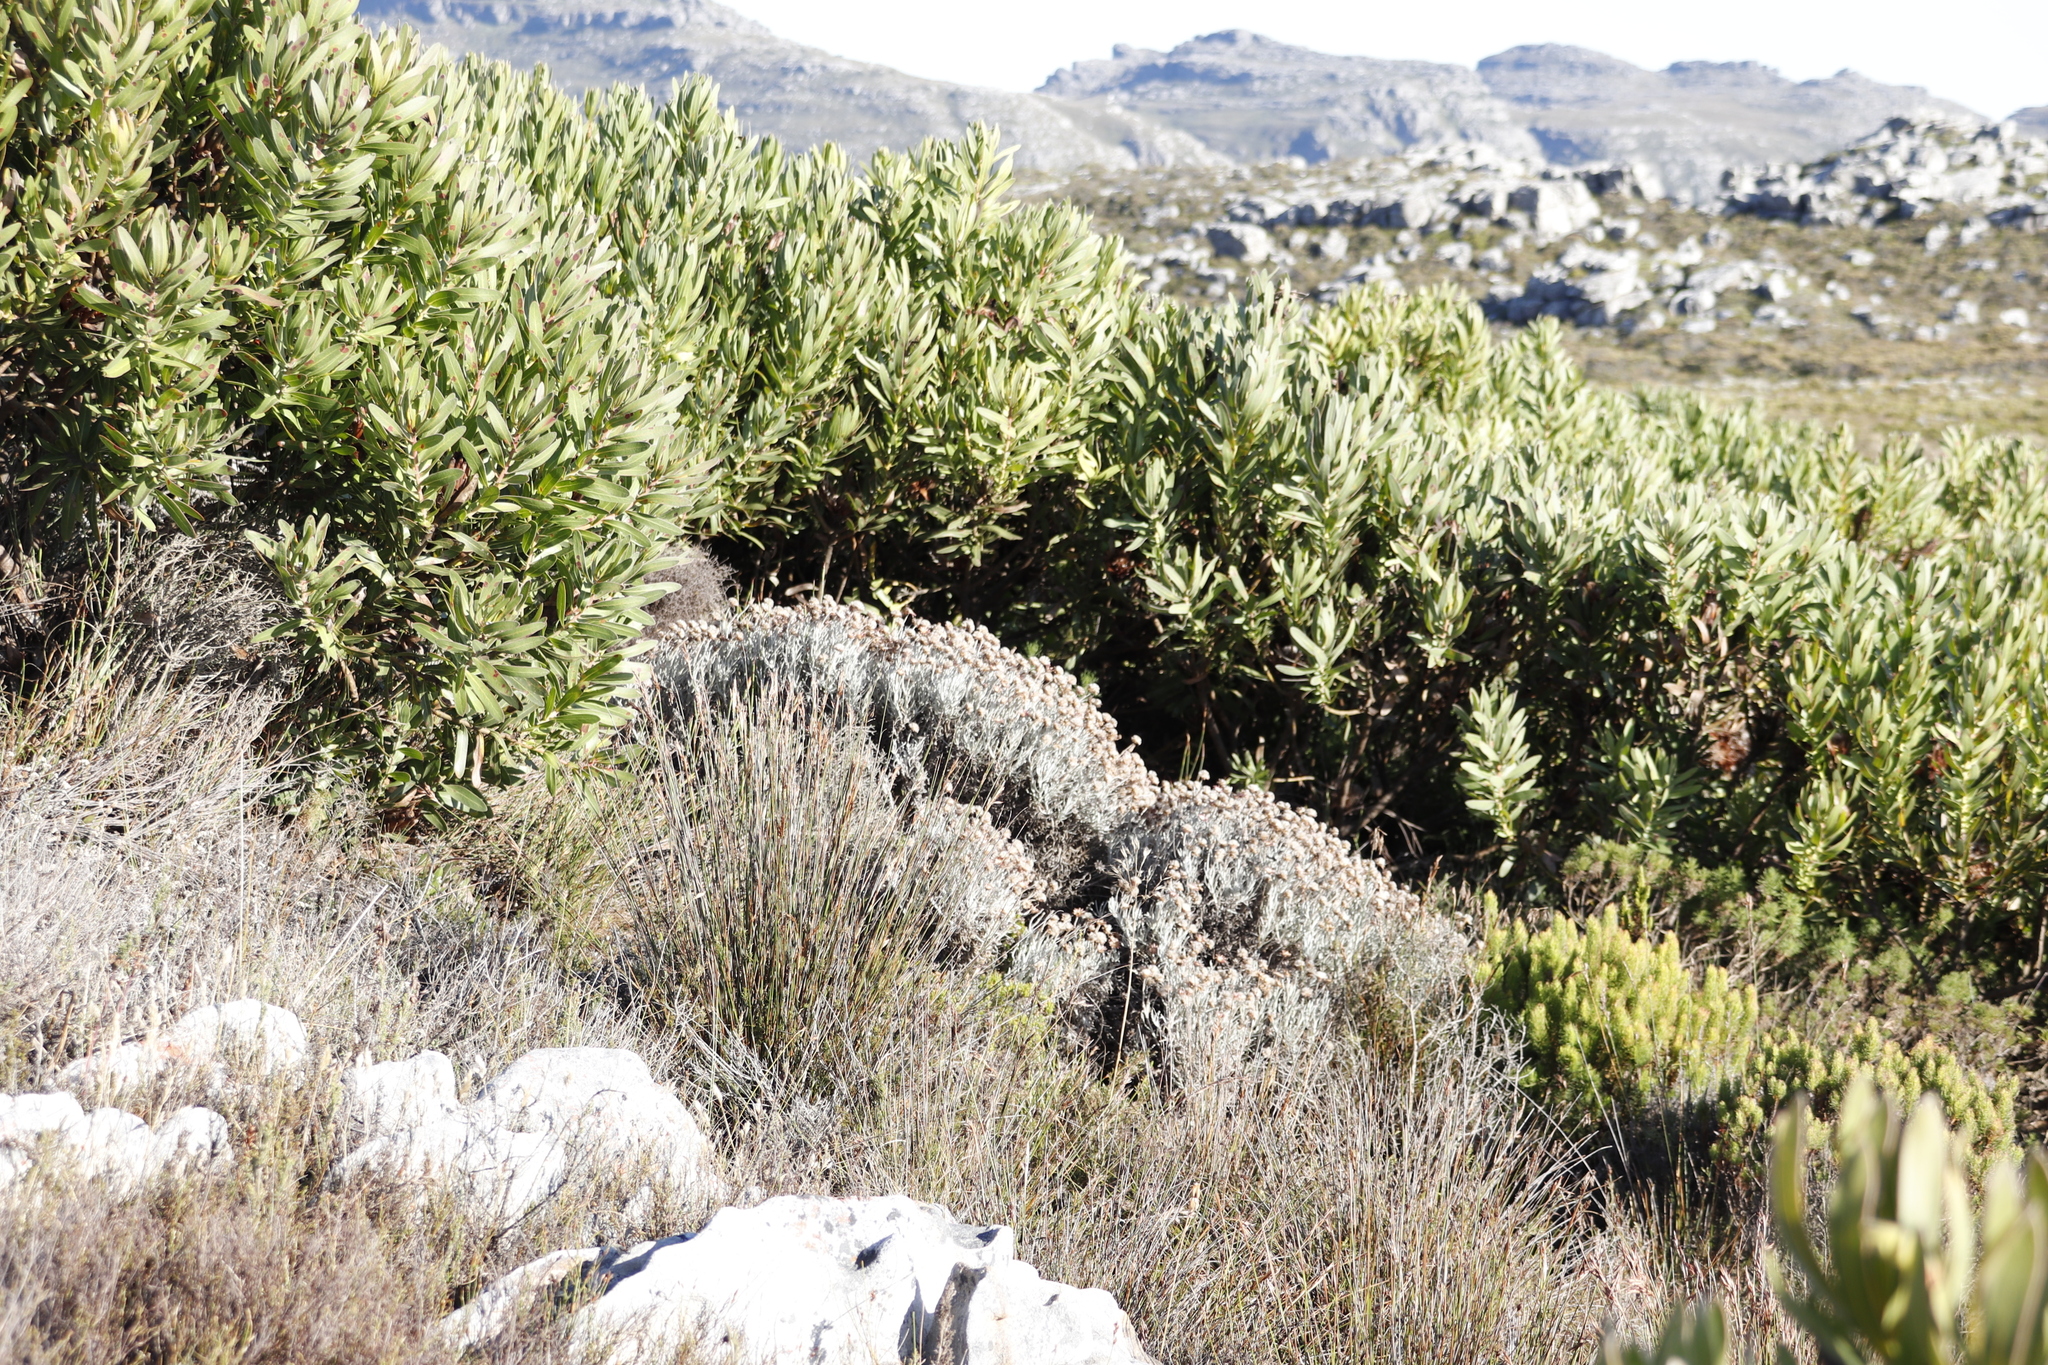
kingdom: Plantae
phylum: Tracheophyta
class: Magnoliopsida
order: Asterales
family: Asteraceae
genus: Syncarpha
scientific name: Syncarpha gnaphaloides
